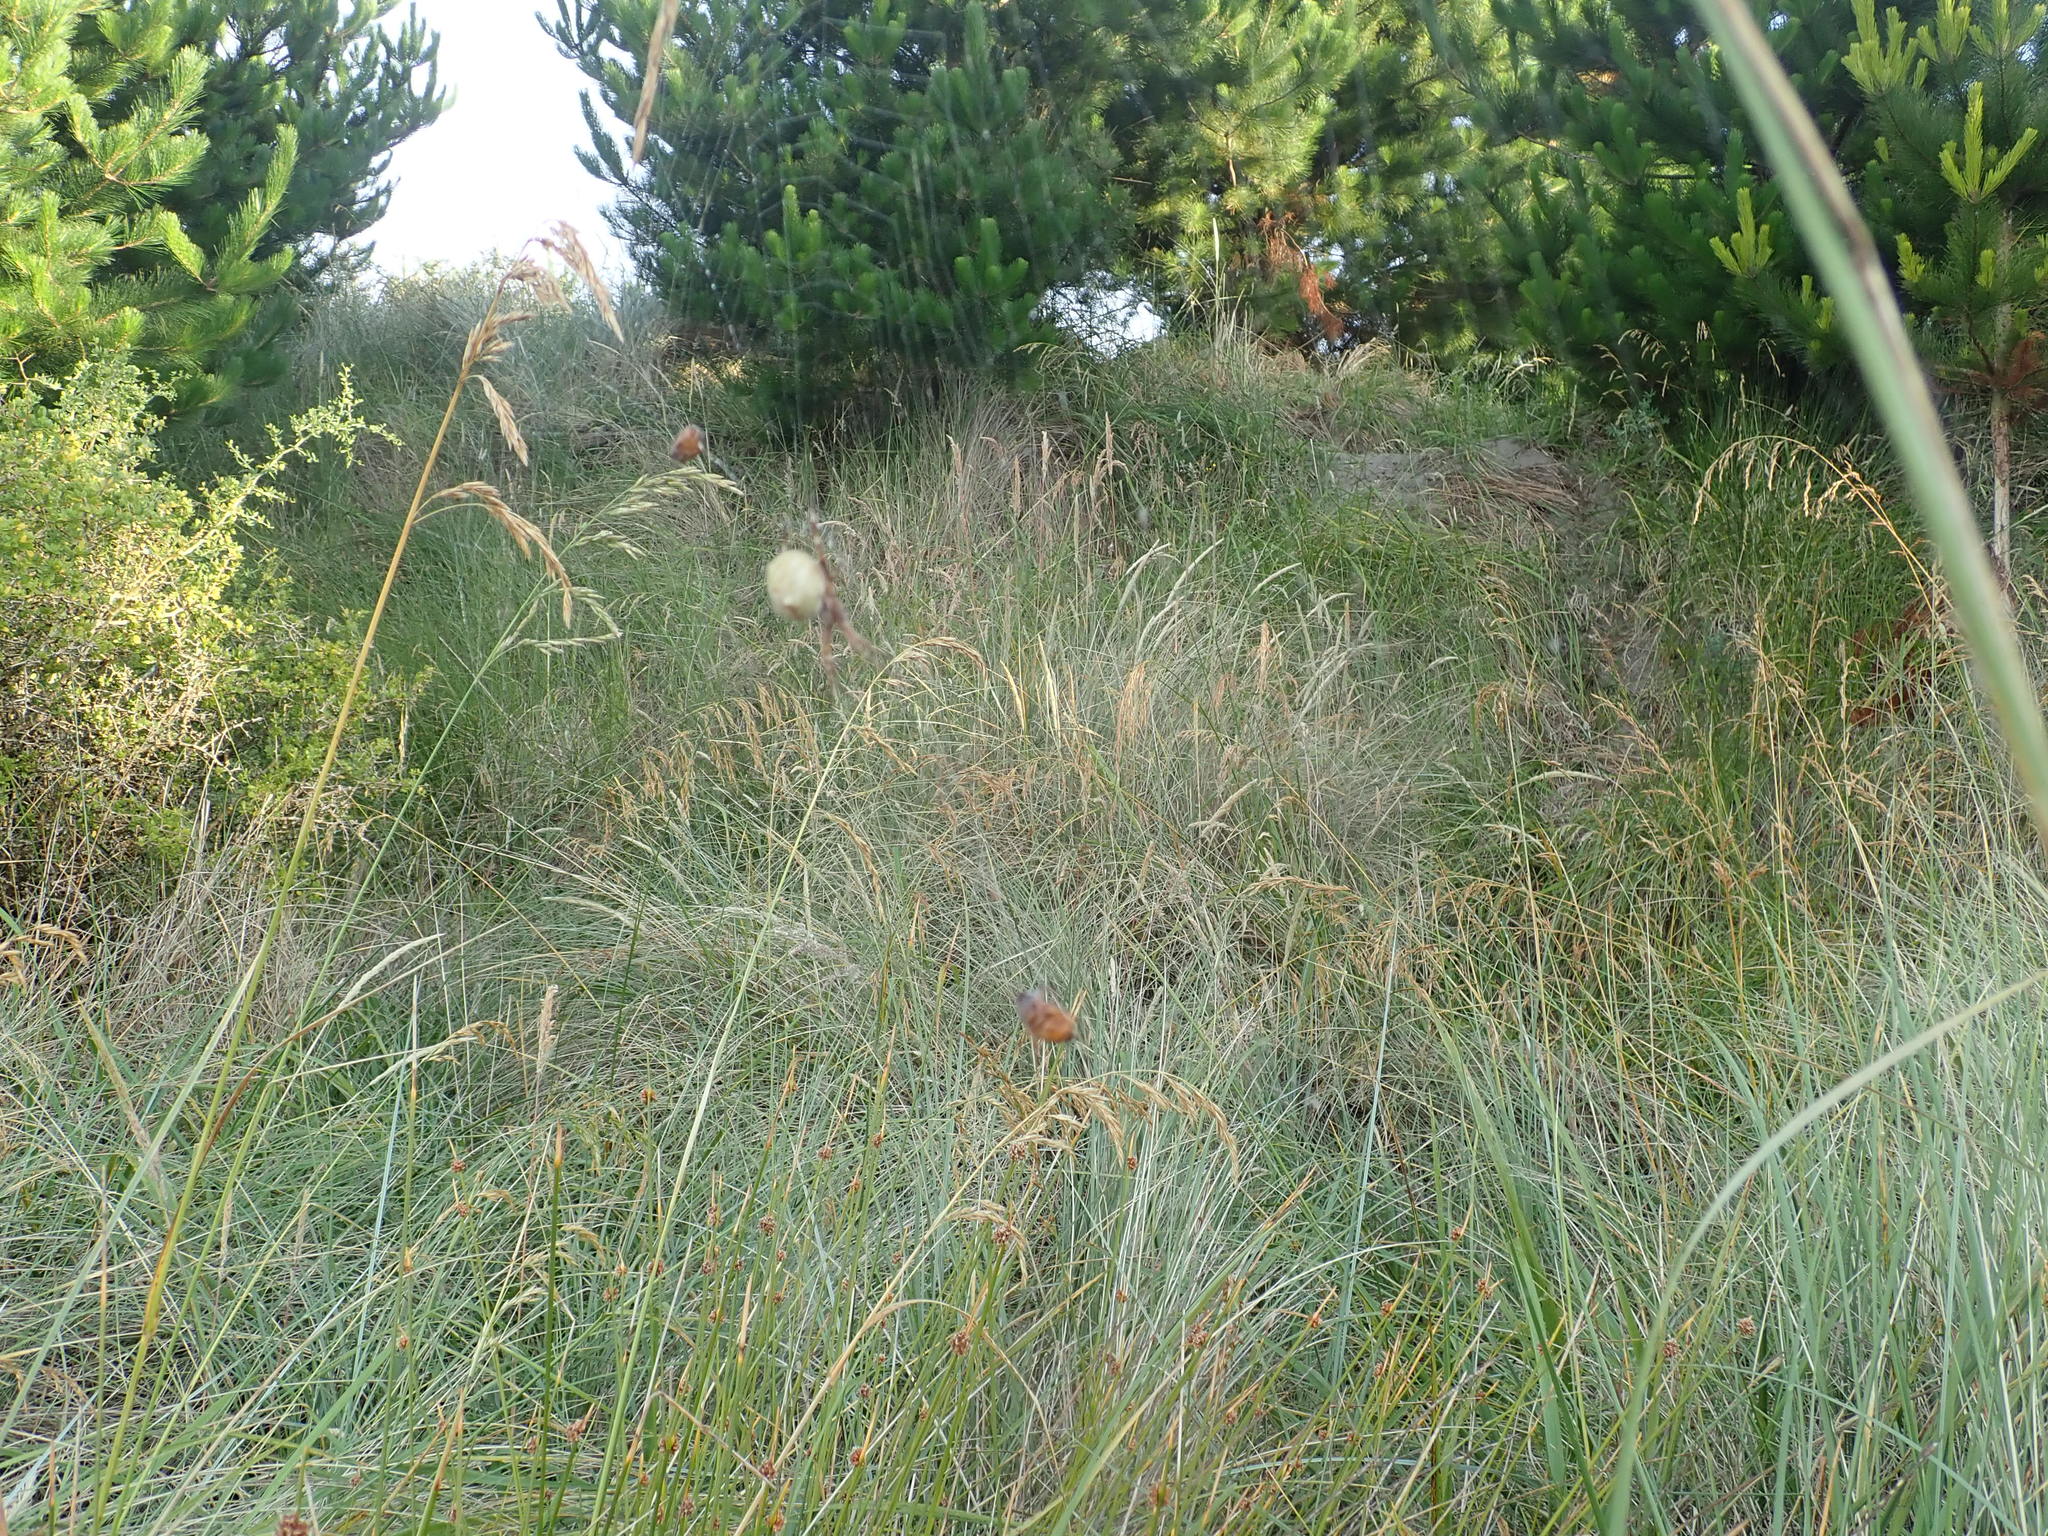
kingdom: Animalia
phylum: Arthropoda
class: Arachnida
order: Araneae
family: Araneidae
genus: Backobourkia
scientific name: Backobourkia brouni
